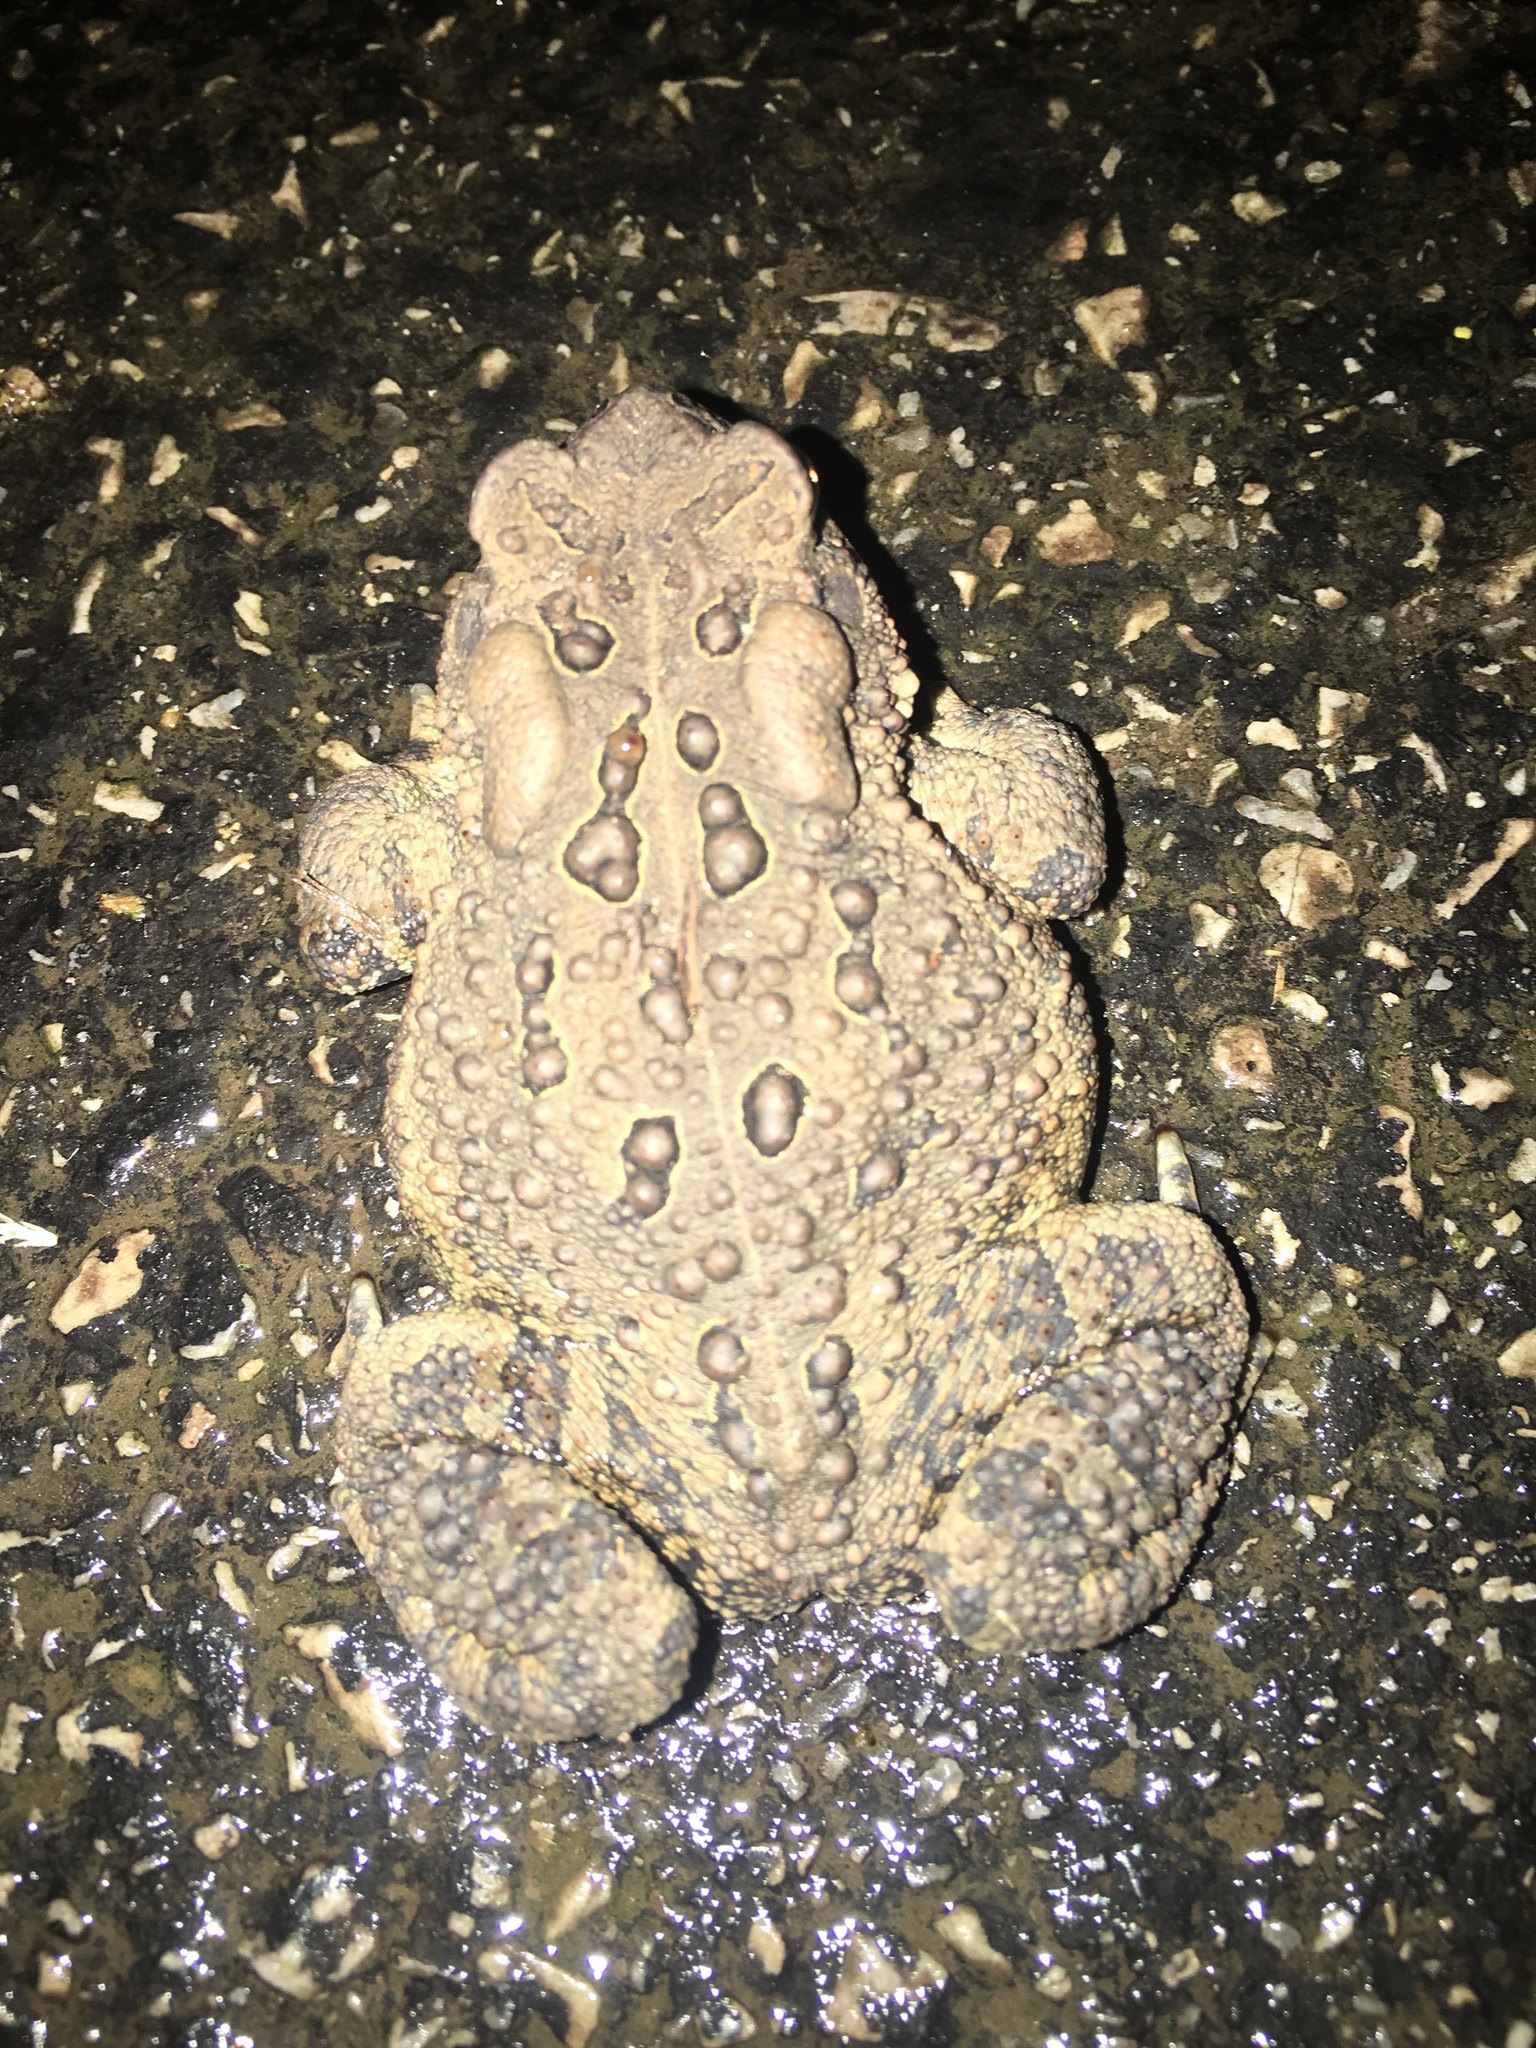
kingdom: Animalia
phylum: Chordata
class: Amphibia
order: Anura
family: Bufonidae
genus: Anaxyrus
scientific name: Anaxyrus americanus
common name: American toad
